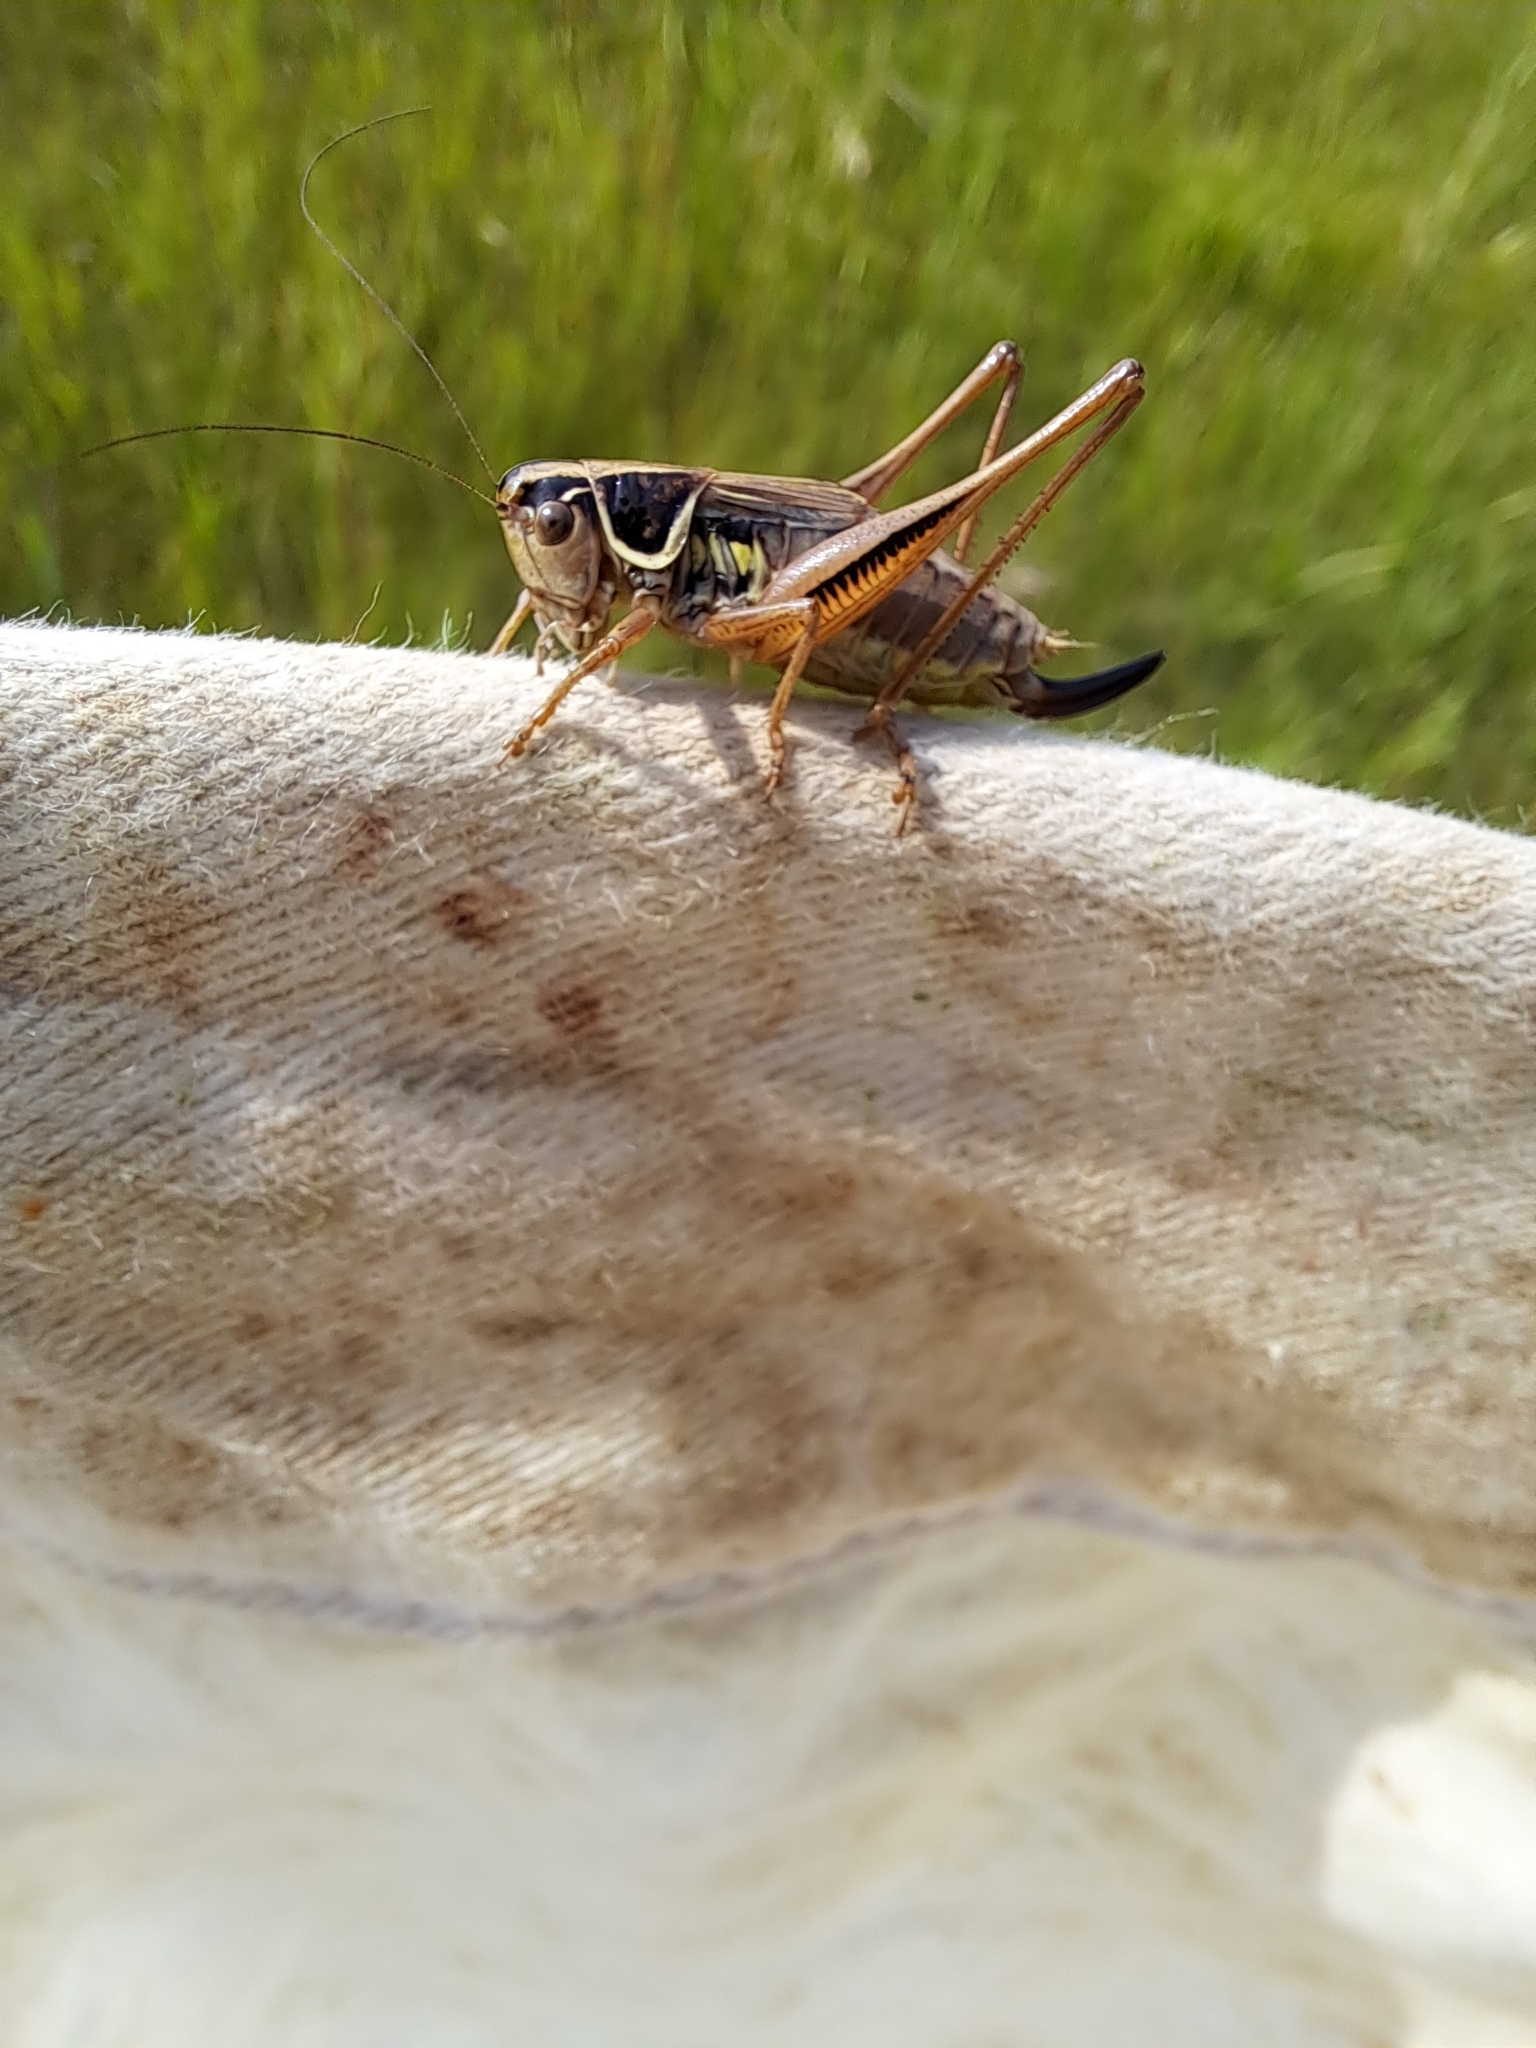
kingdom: Animalia
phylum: Arthropoda
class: Insecta
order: Orthoptera
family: Tettigoniidae
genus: Roeseliana
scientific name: Roeseliana roeselii
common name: Roesel's bush cricket
